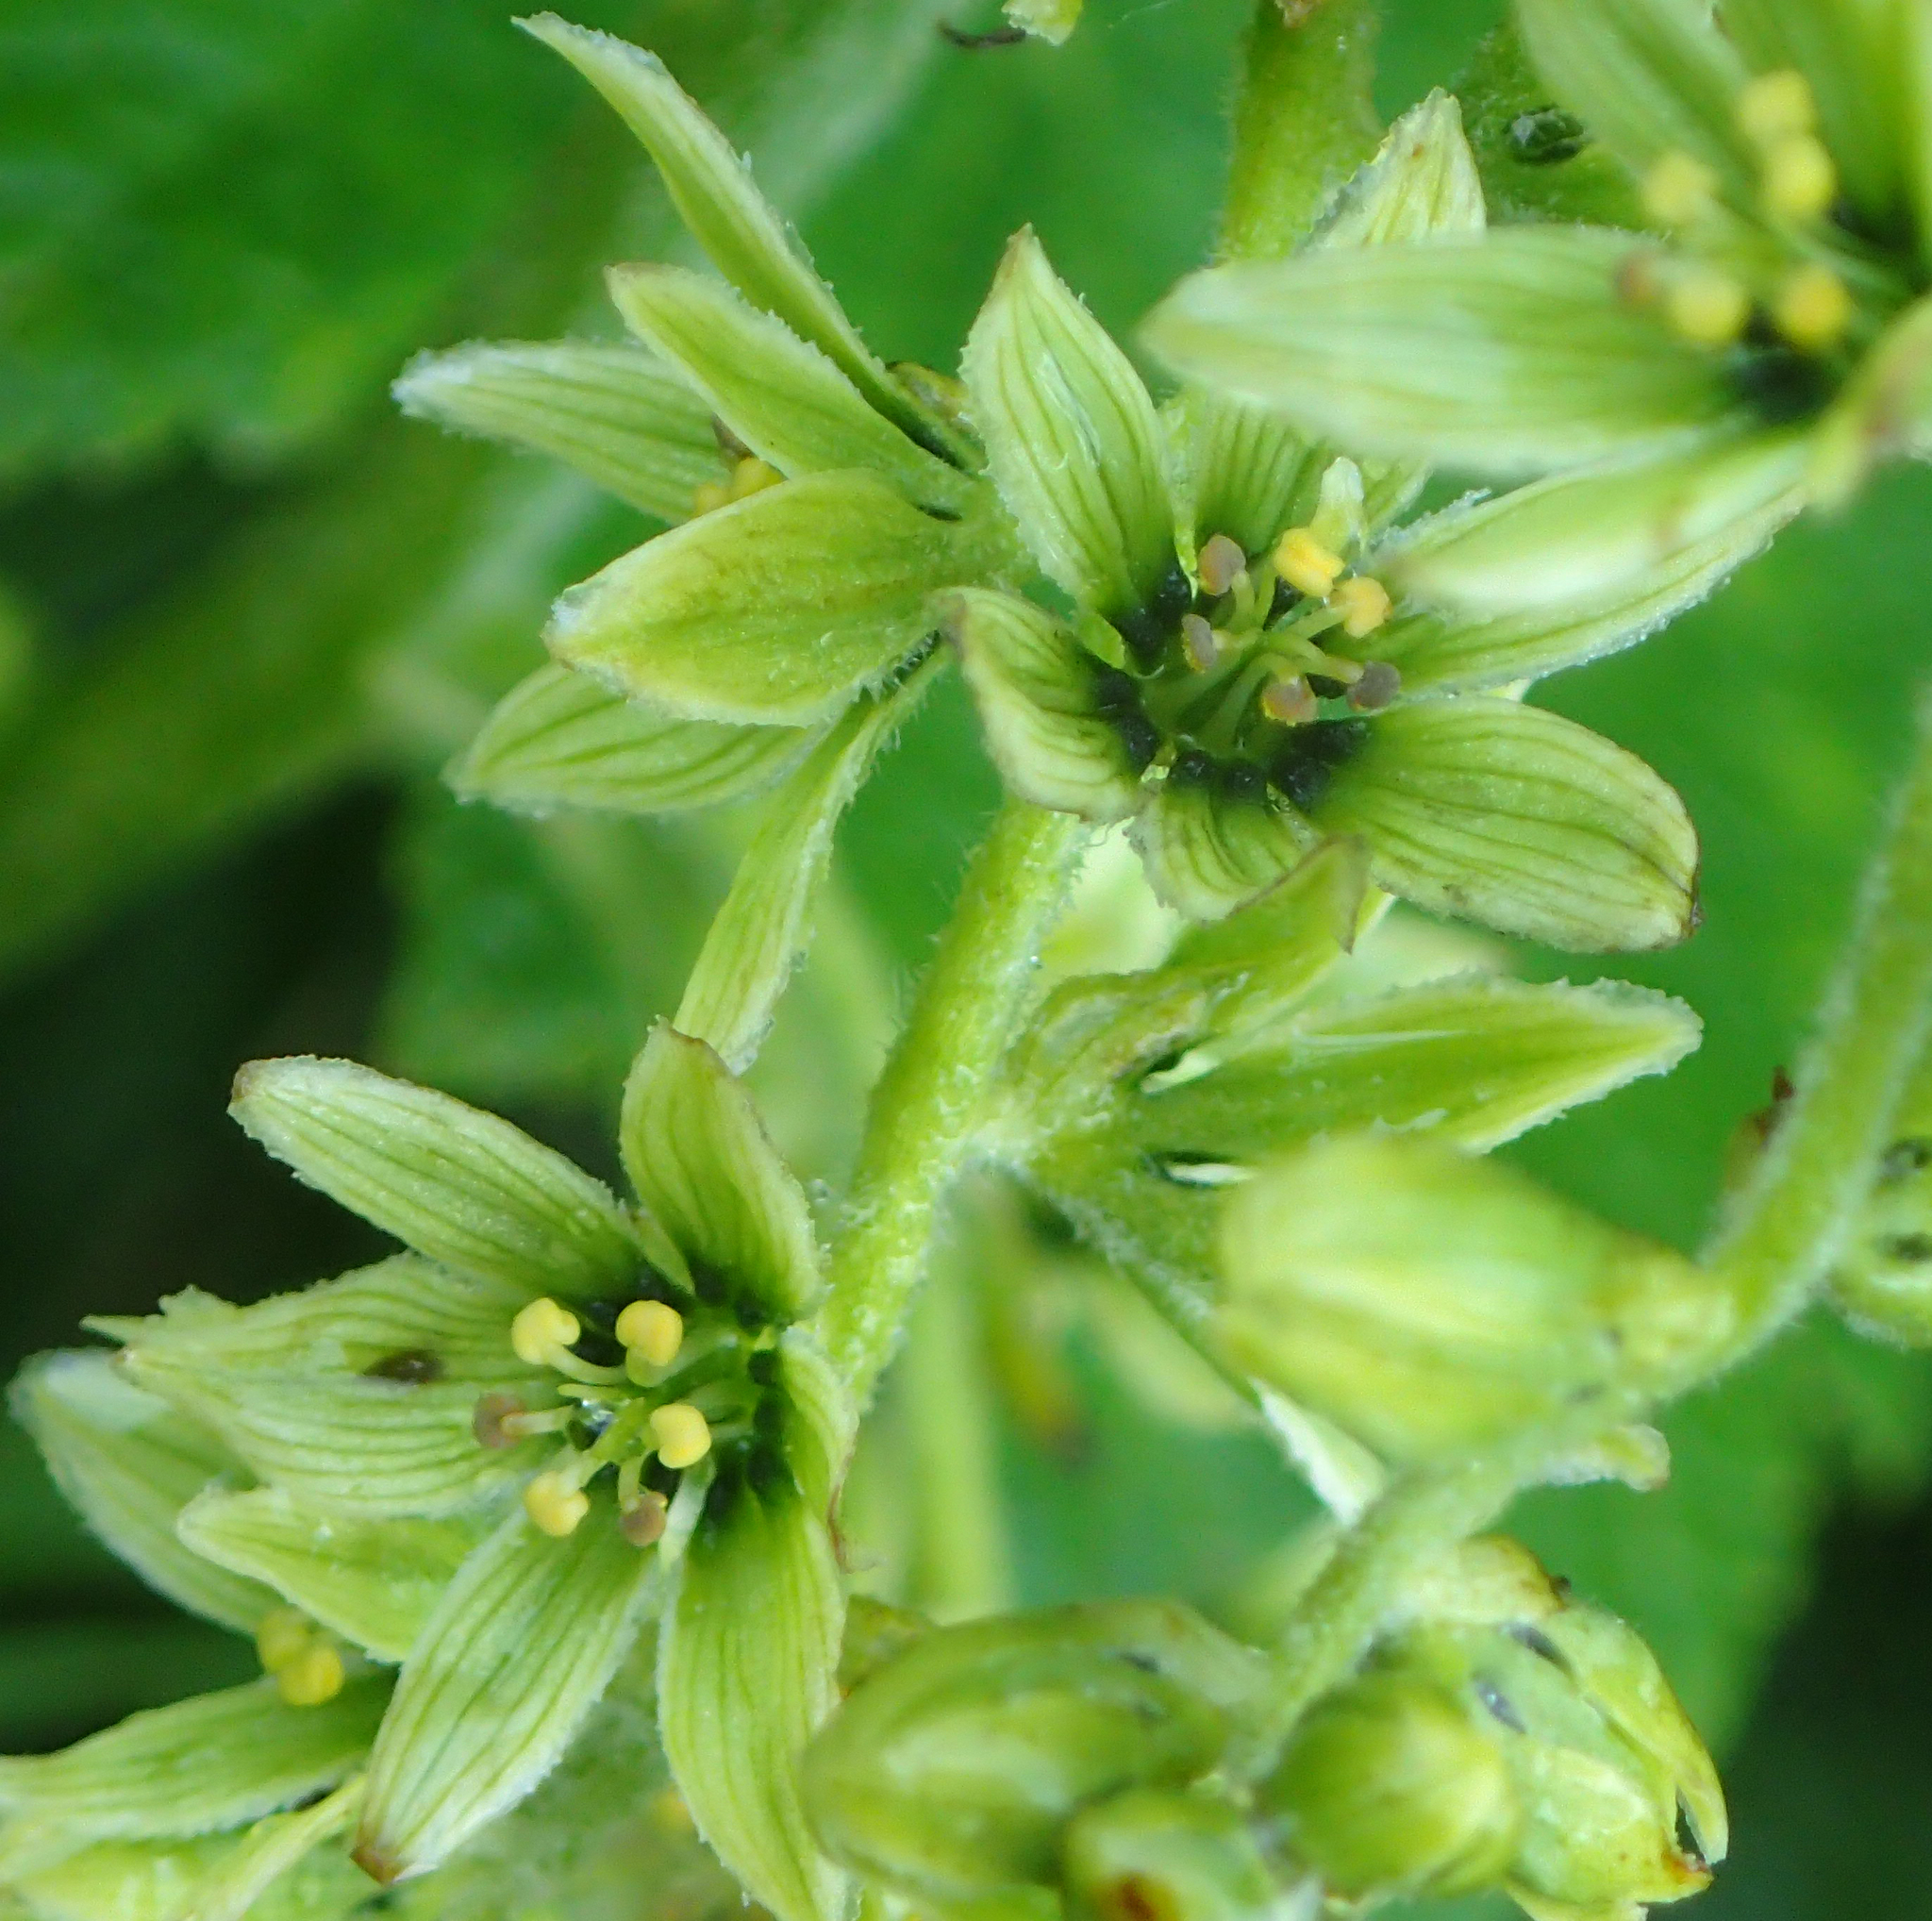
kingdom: Plantae
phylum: Tracheophyta
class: Liliopsida
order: Liliales
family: Melanthiaceae
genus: Veratrum
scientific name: Veratrum viride
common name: American false hellebore
